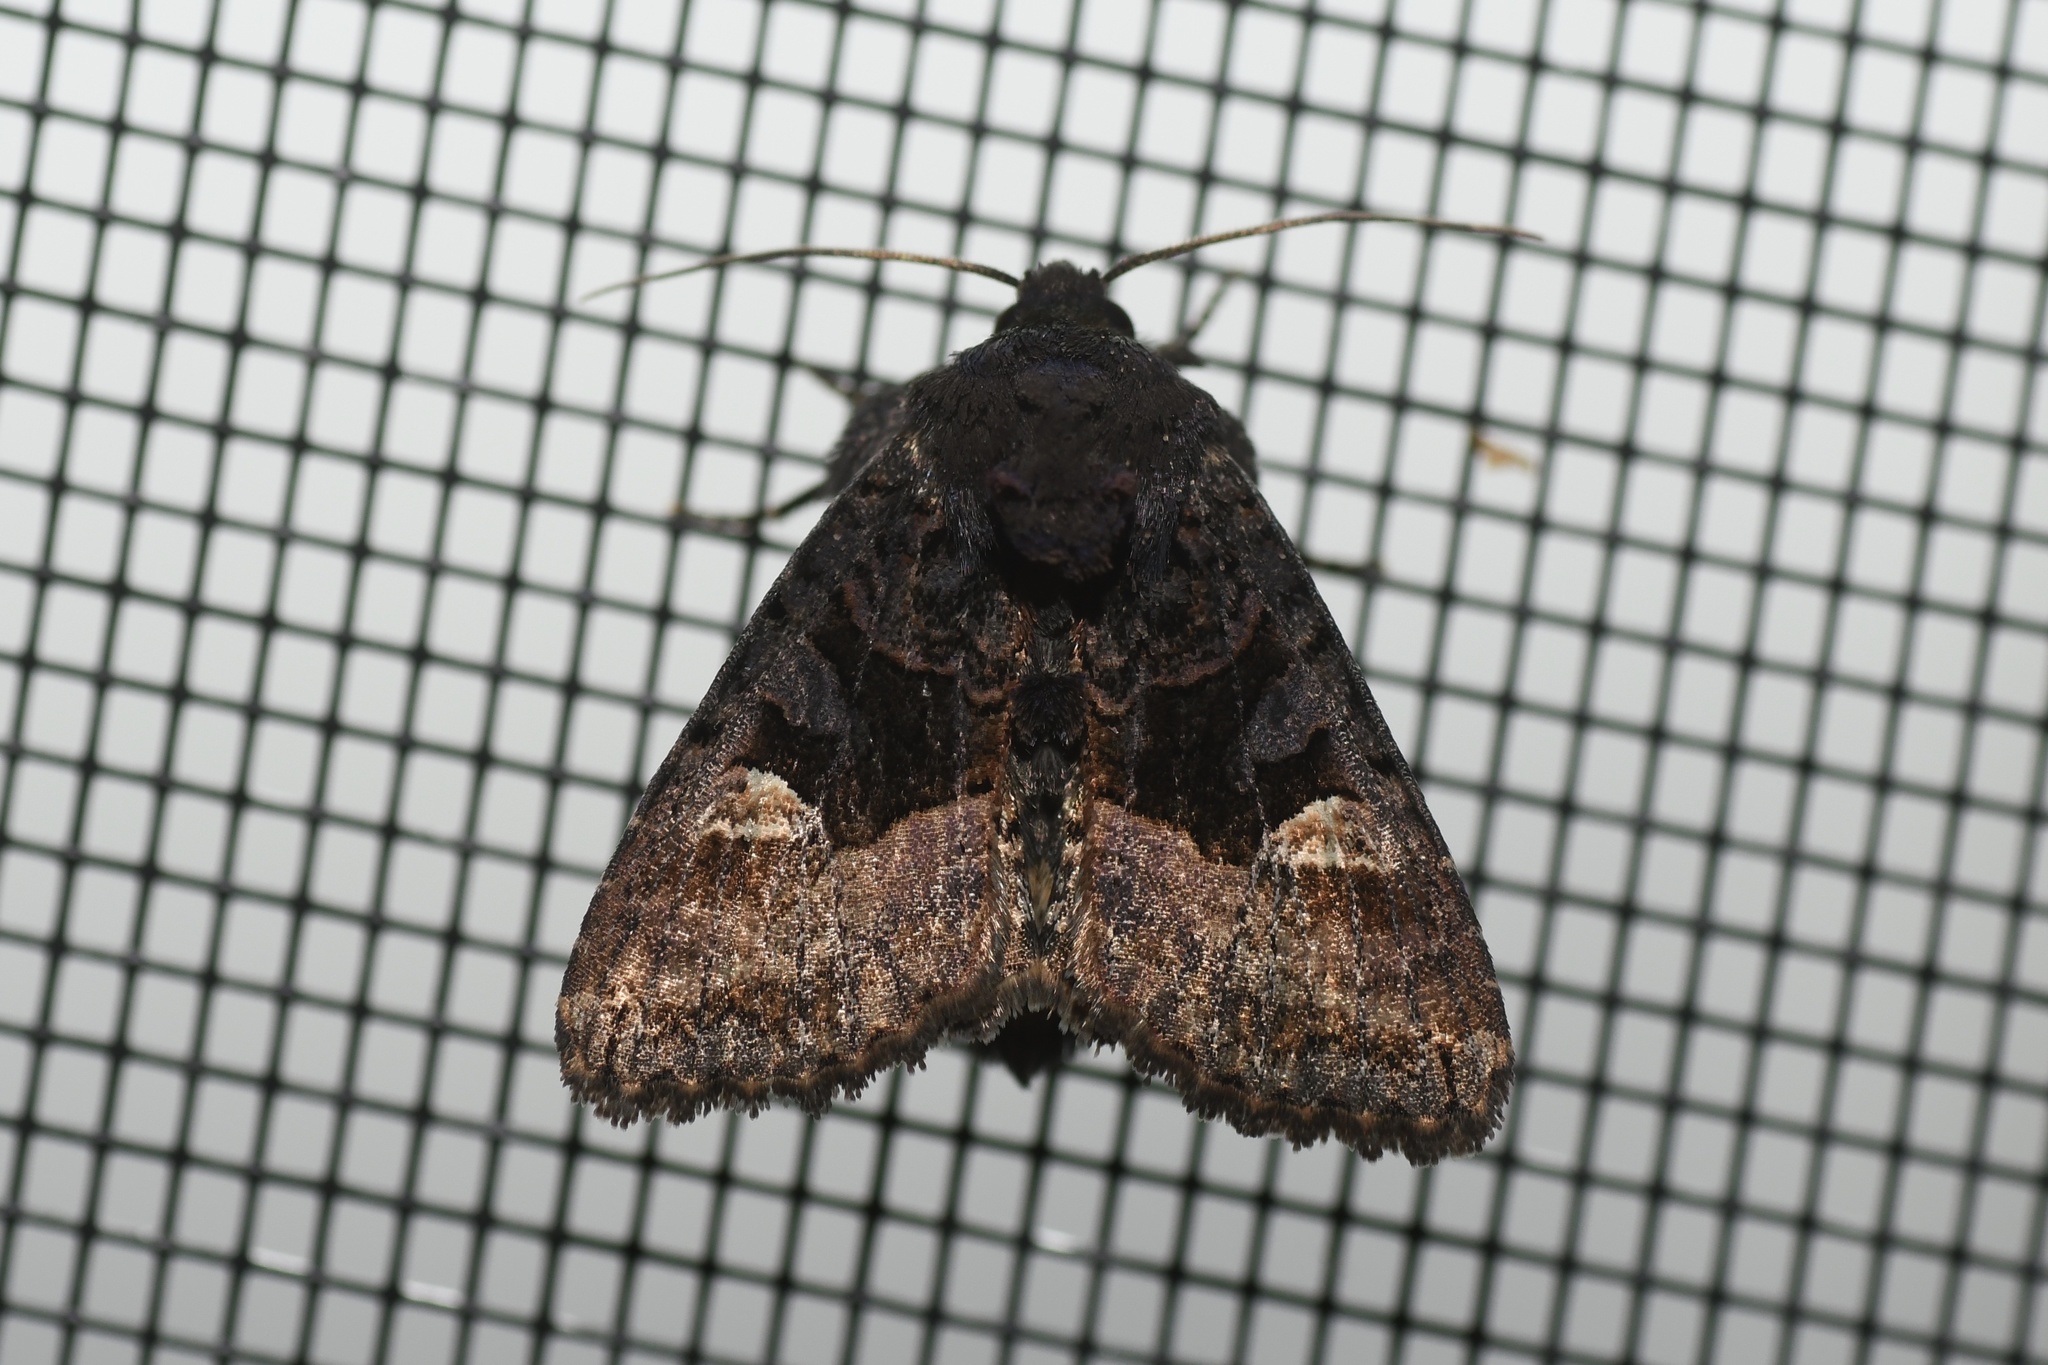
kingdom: Animalia
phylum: Arthropoda
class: Insecta
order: Lepidoptera
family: Noctuidae
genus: Euplexia
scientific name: Euplexia benesimilis
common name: American angle shades
